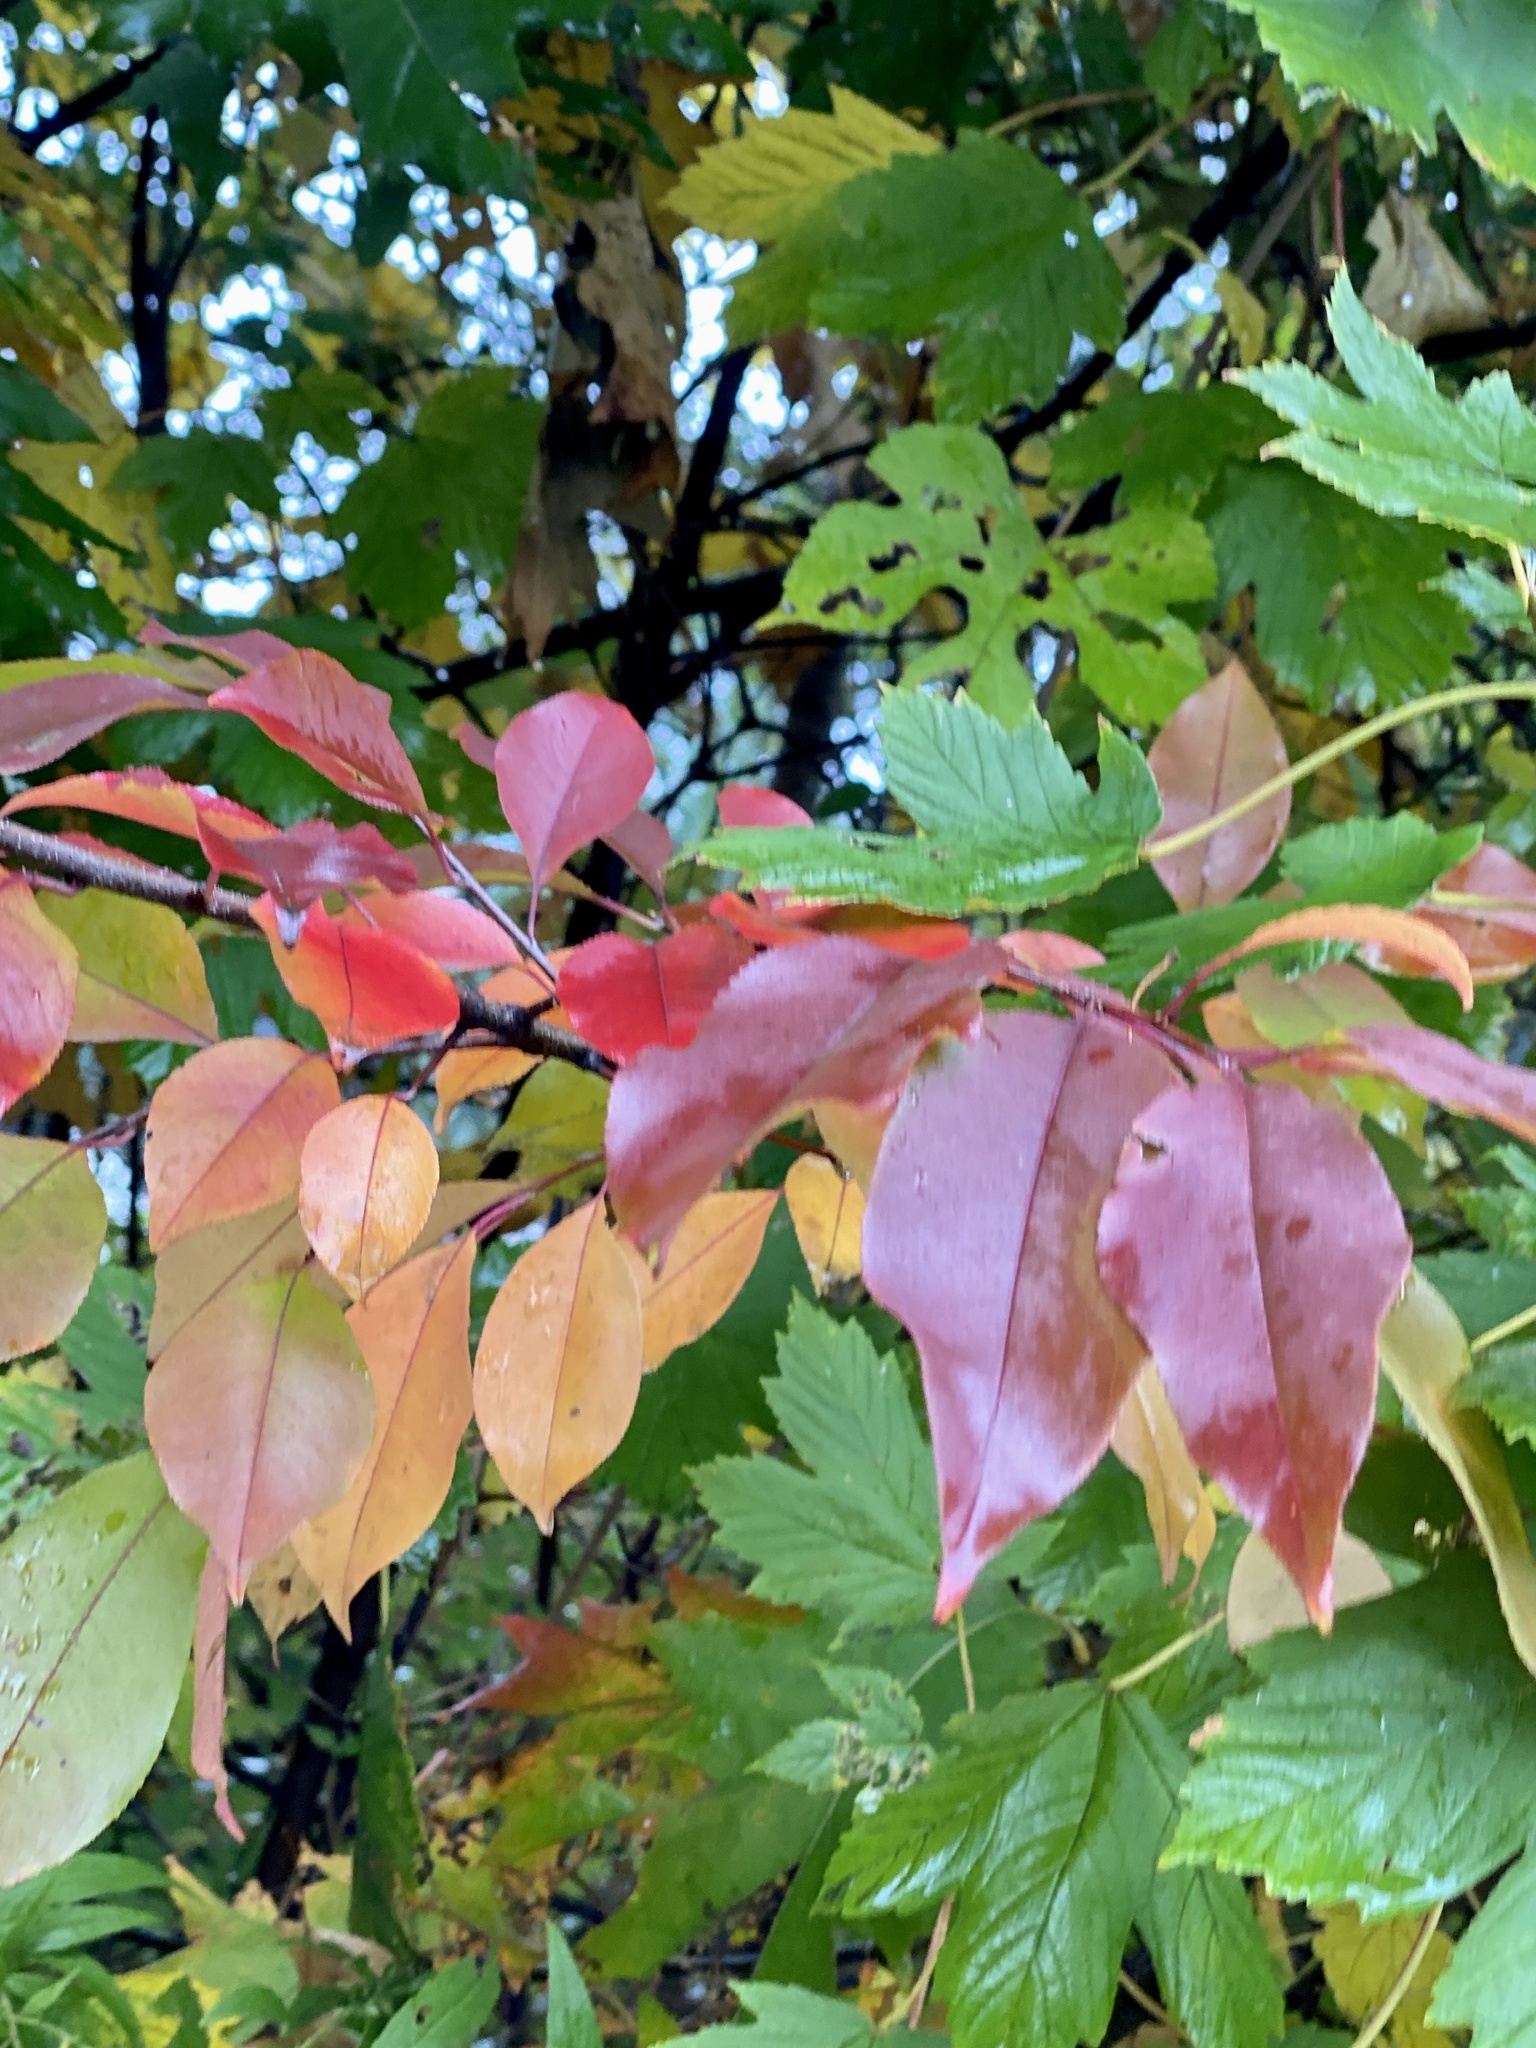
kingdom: Plantae
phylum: Tracheophyta
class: Magnoliopsida
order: Rosales
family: Rosaceae
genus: Prunus
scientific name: Prunus serotina
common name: Black cherry
